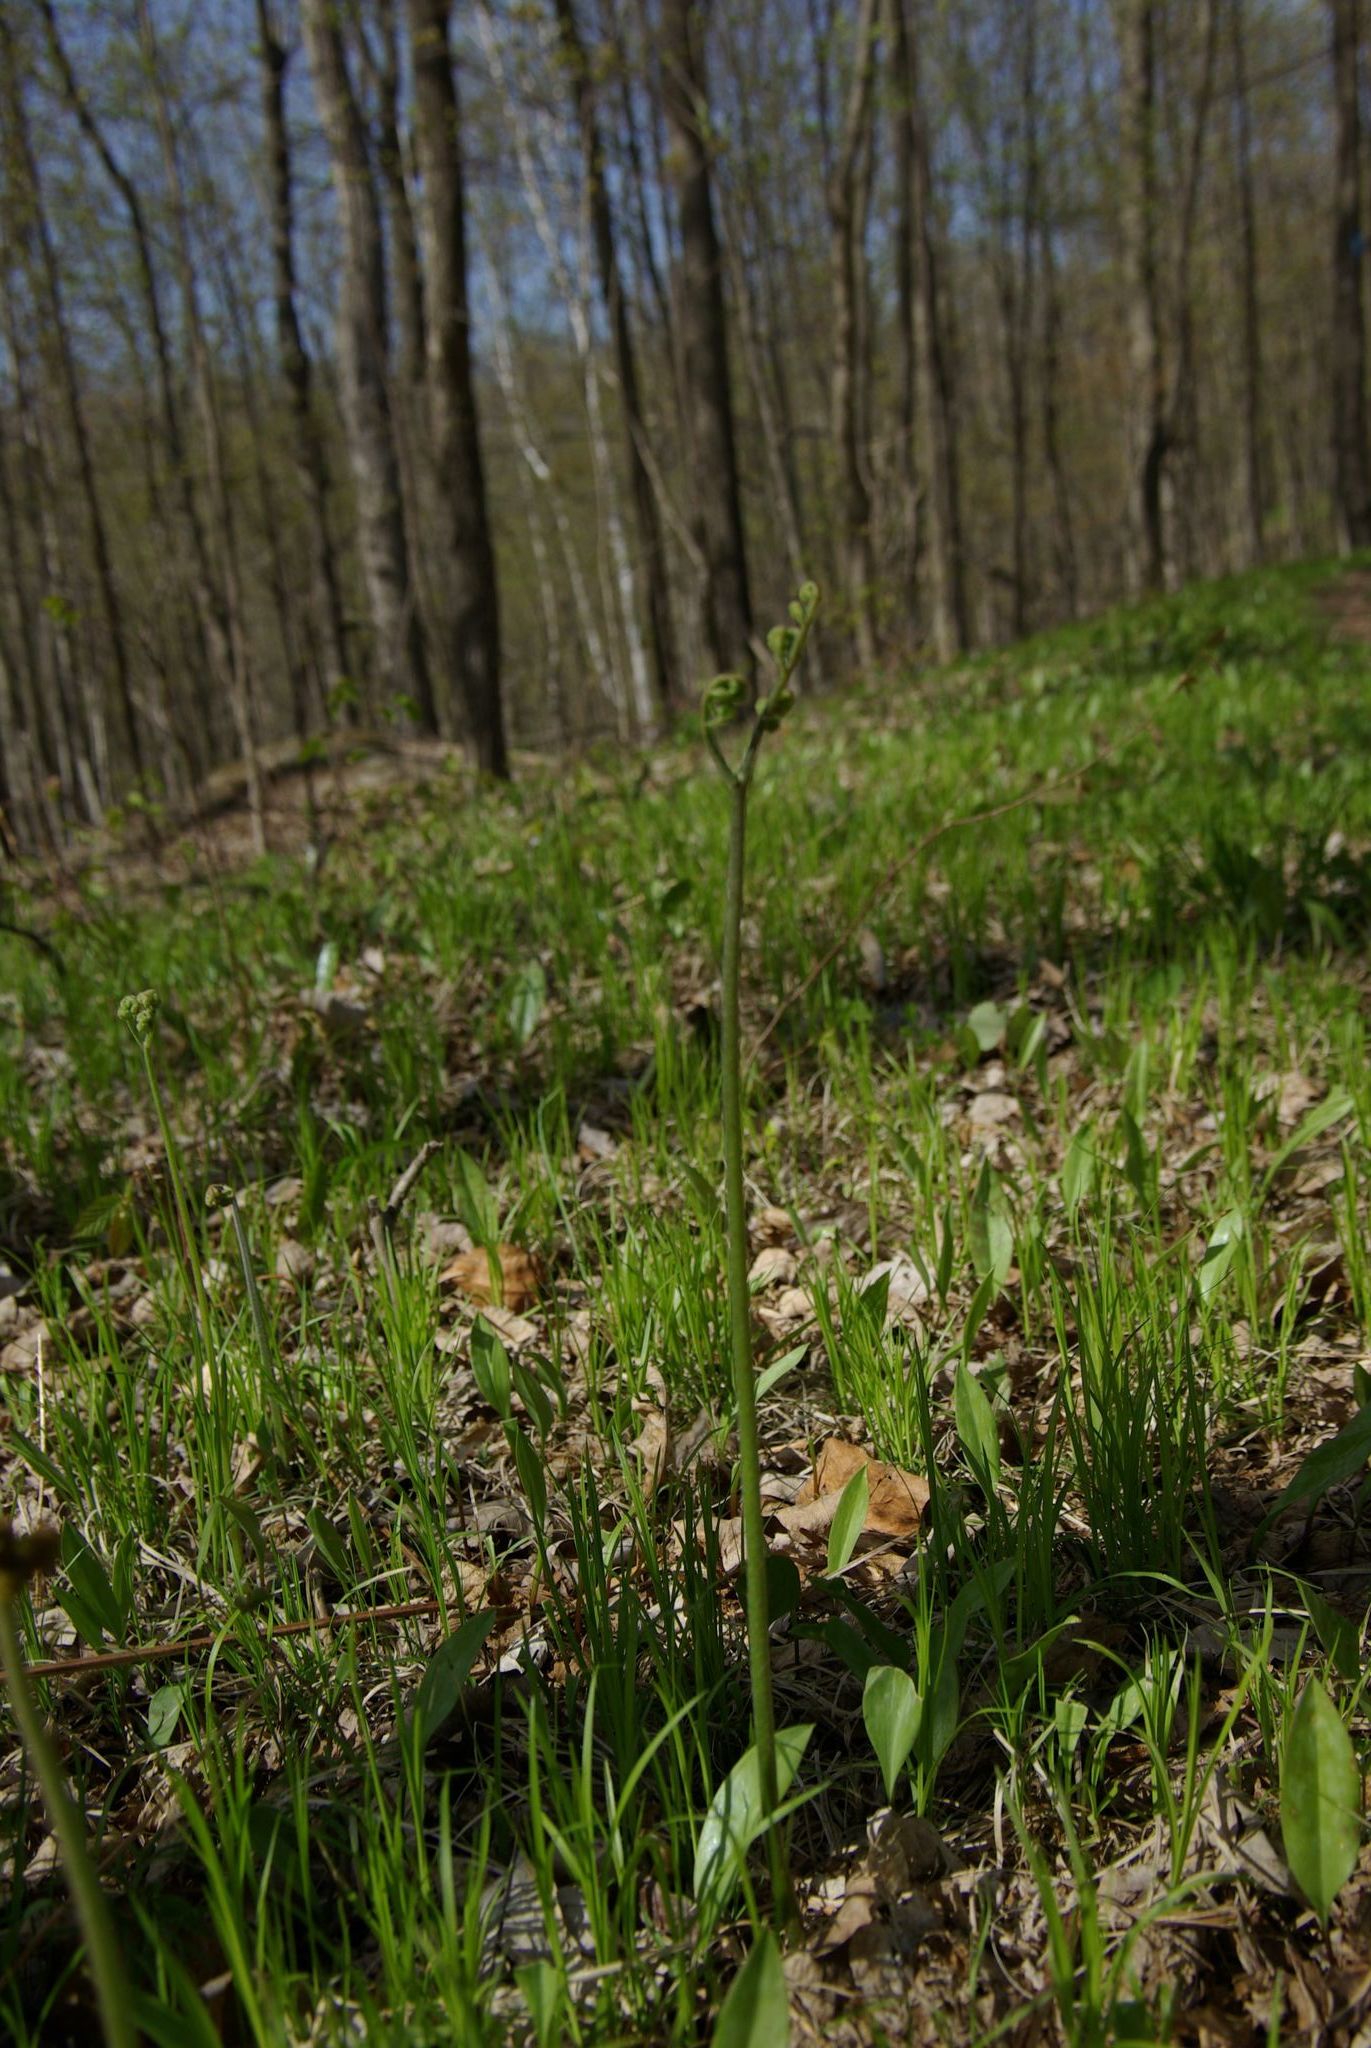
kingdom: Plantae
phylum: Tracheophyta
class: Polypodiopsida
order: Polypodiales
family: Dennstaedtiaceae
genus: Pteridium
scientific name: Pteridium aquilinum
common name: Bracken
